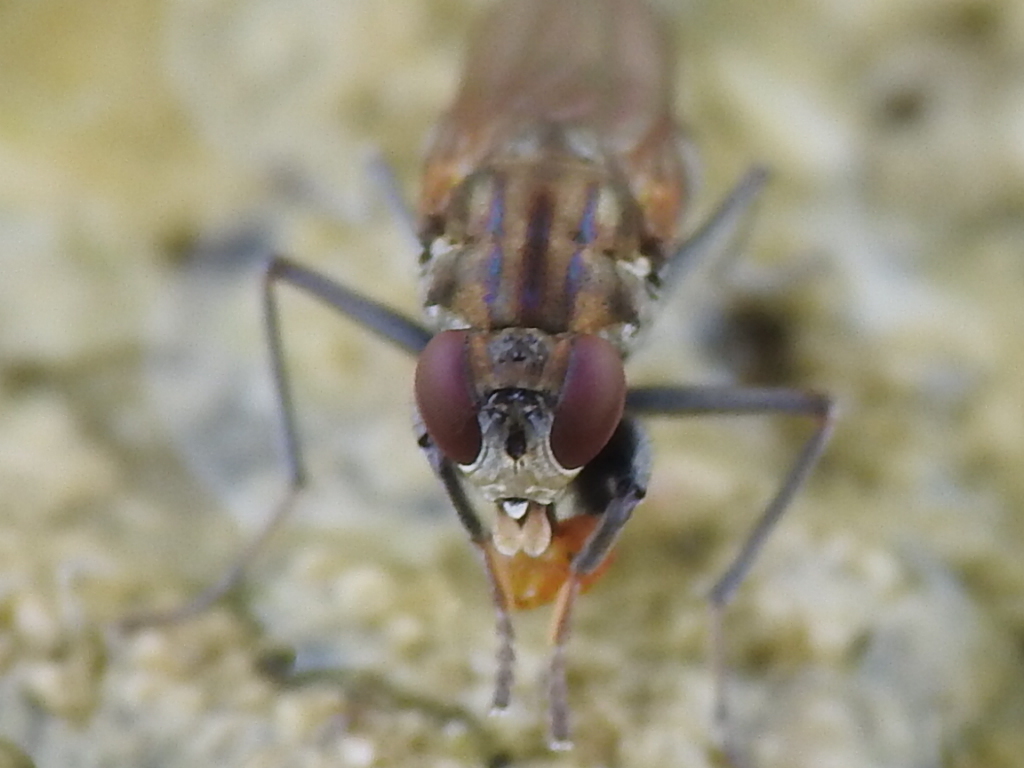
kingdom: Animalia
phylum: Arthropoda
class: Insecta
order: Diptera
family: Ephydridae
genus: Ochthera
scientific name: Ochthera cuprilineata
